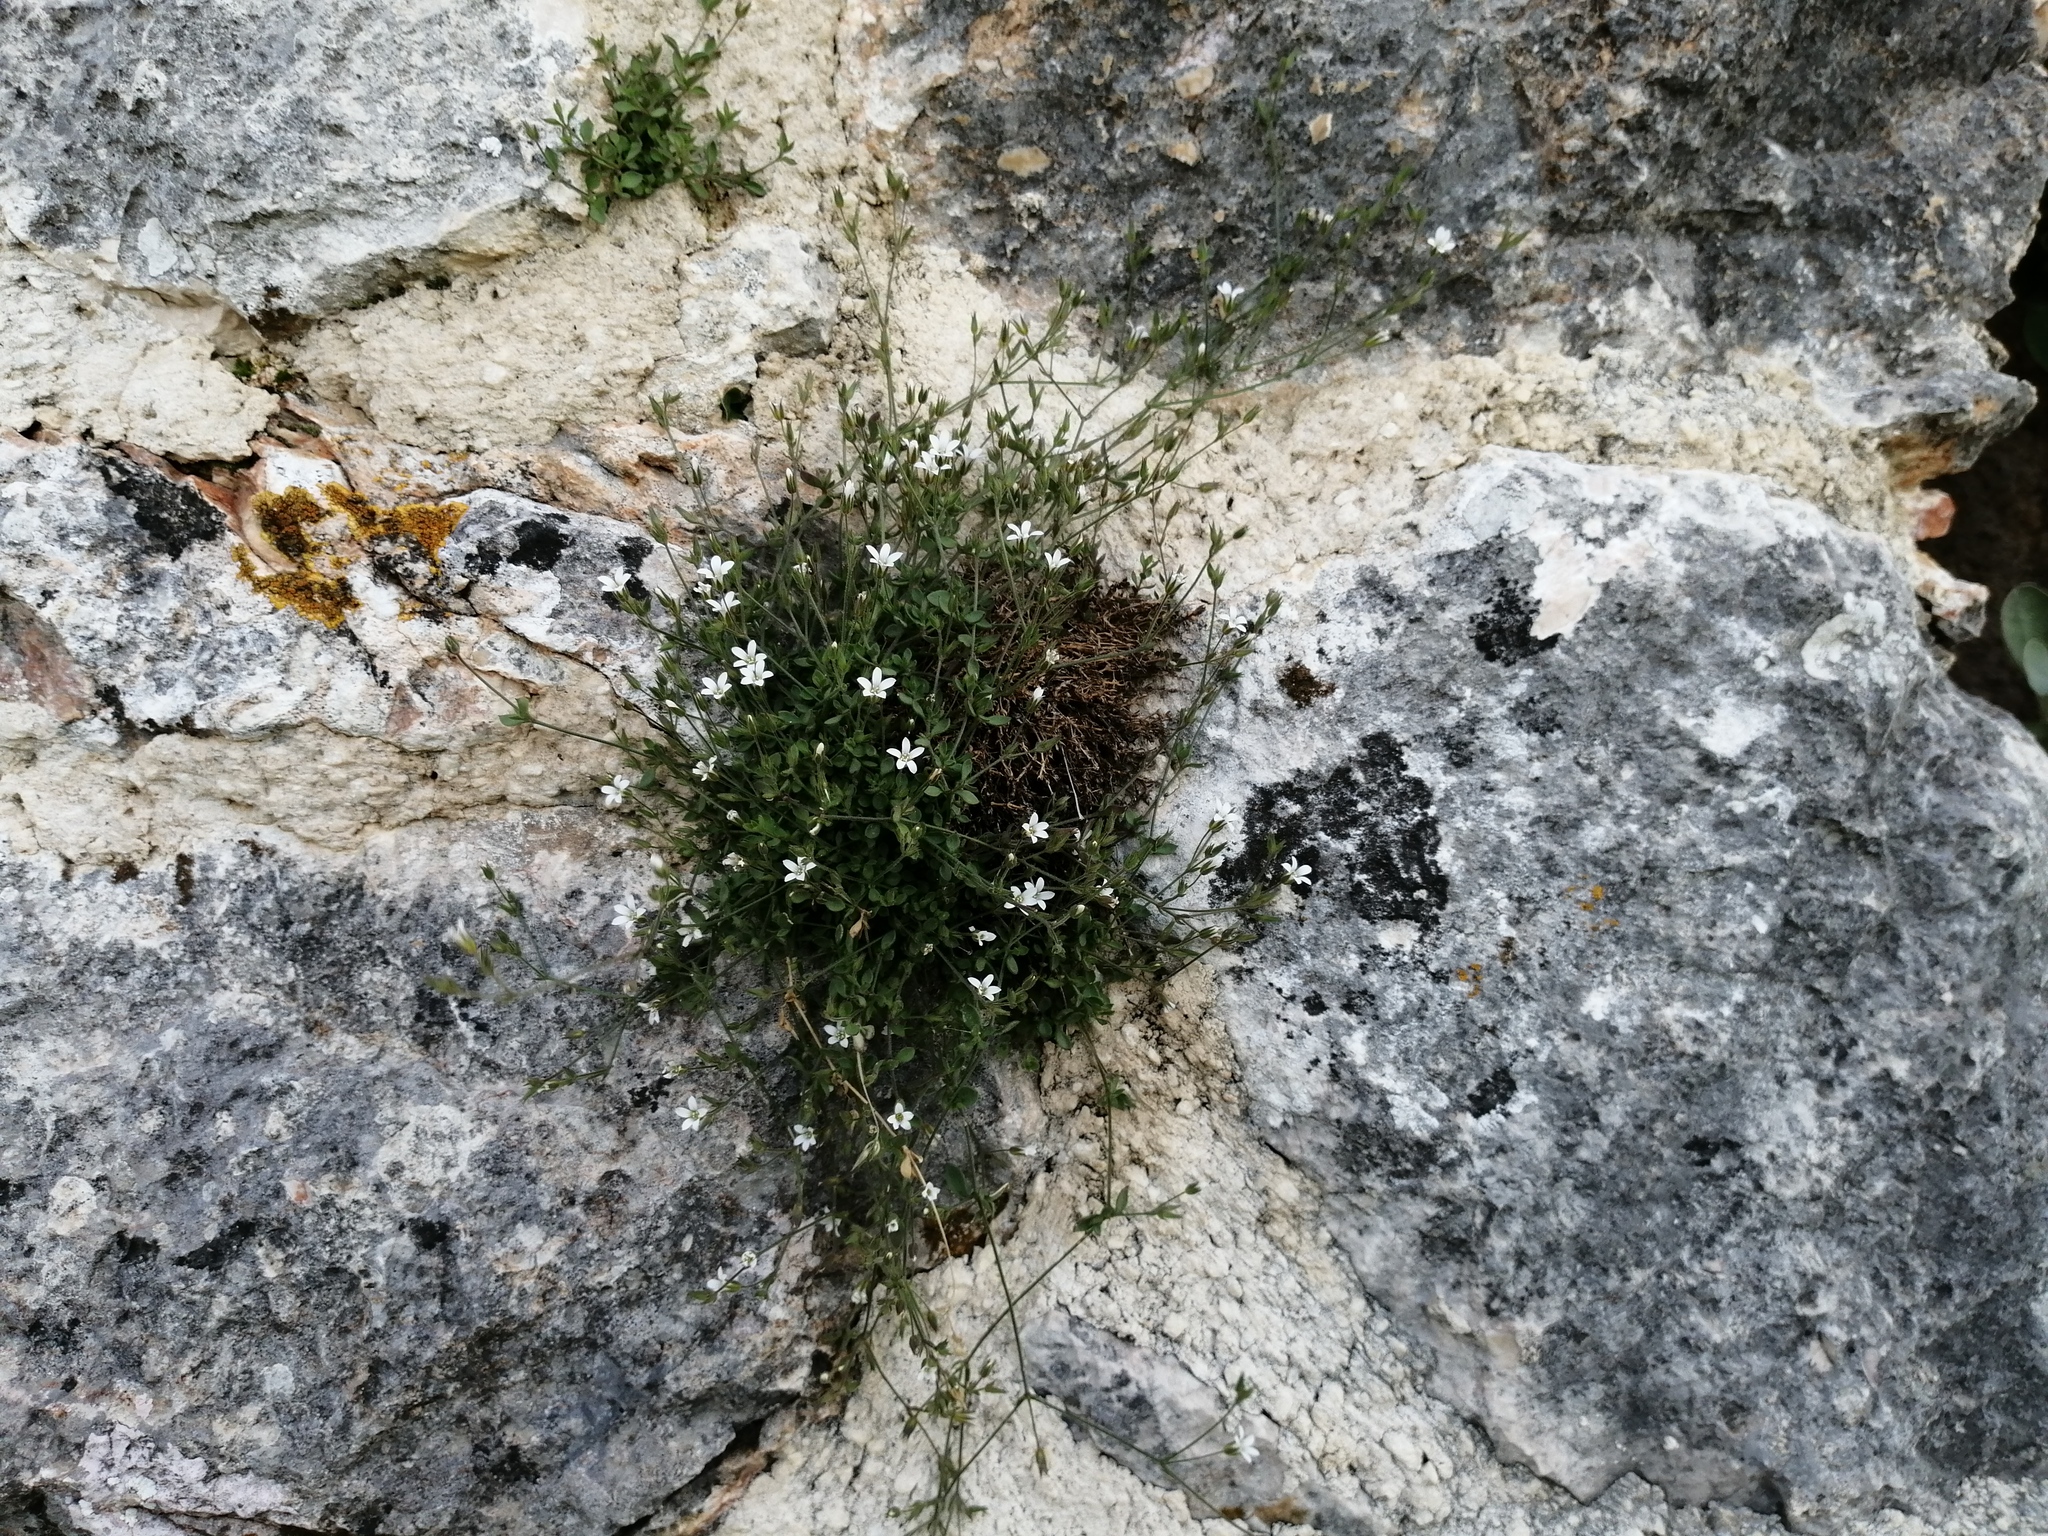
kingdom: Plantae
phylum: Tracheophyta
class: Magnoliopsida
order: Caryophyllales
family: Caryophyllaceae
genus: Arenaria
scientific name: Arenaria orbicularis
